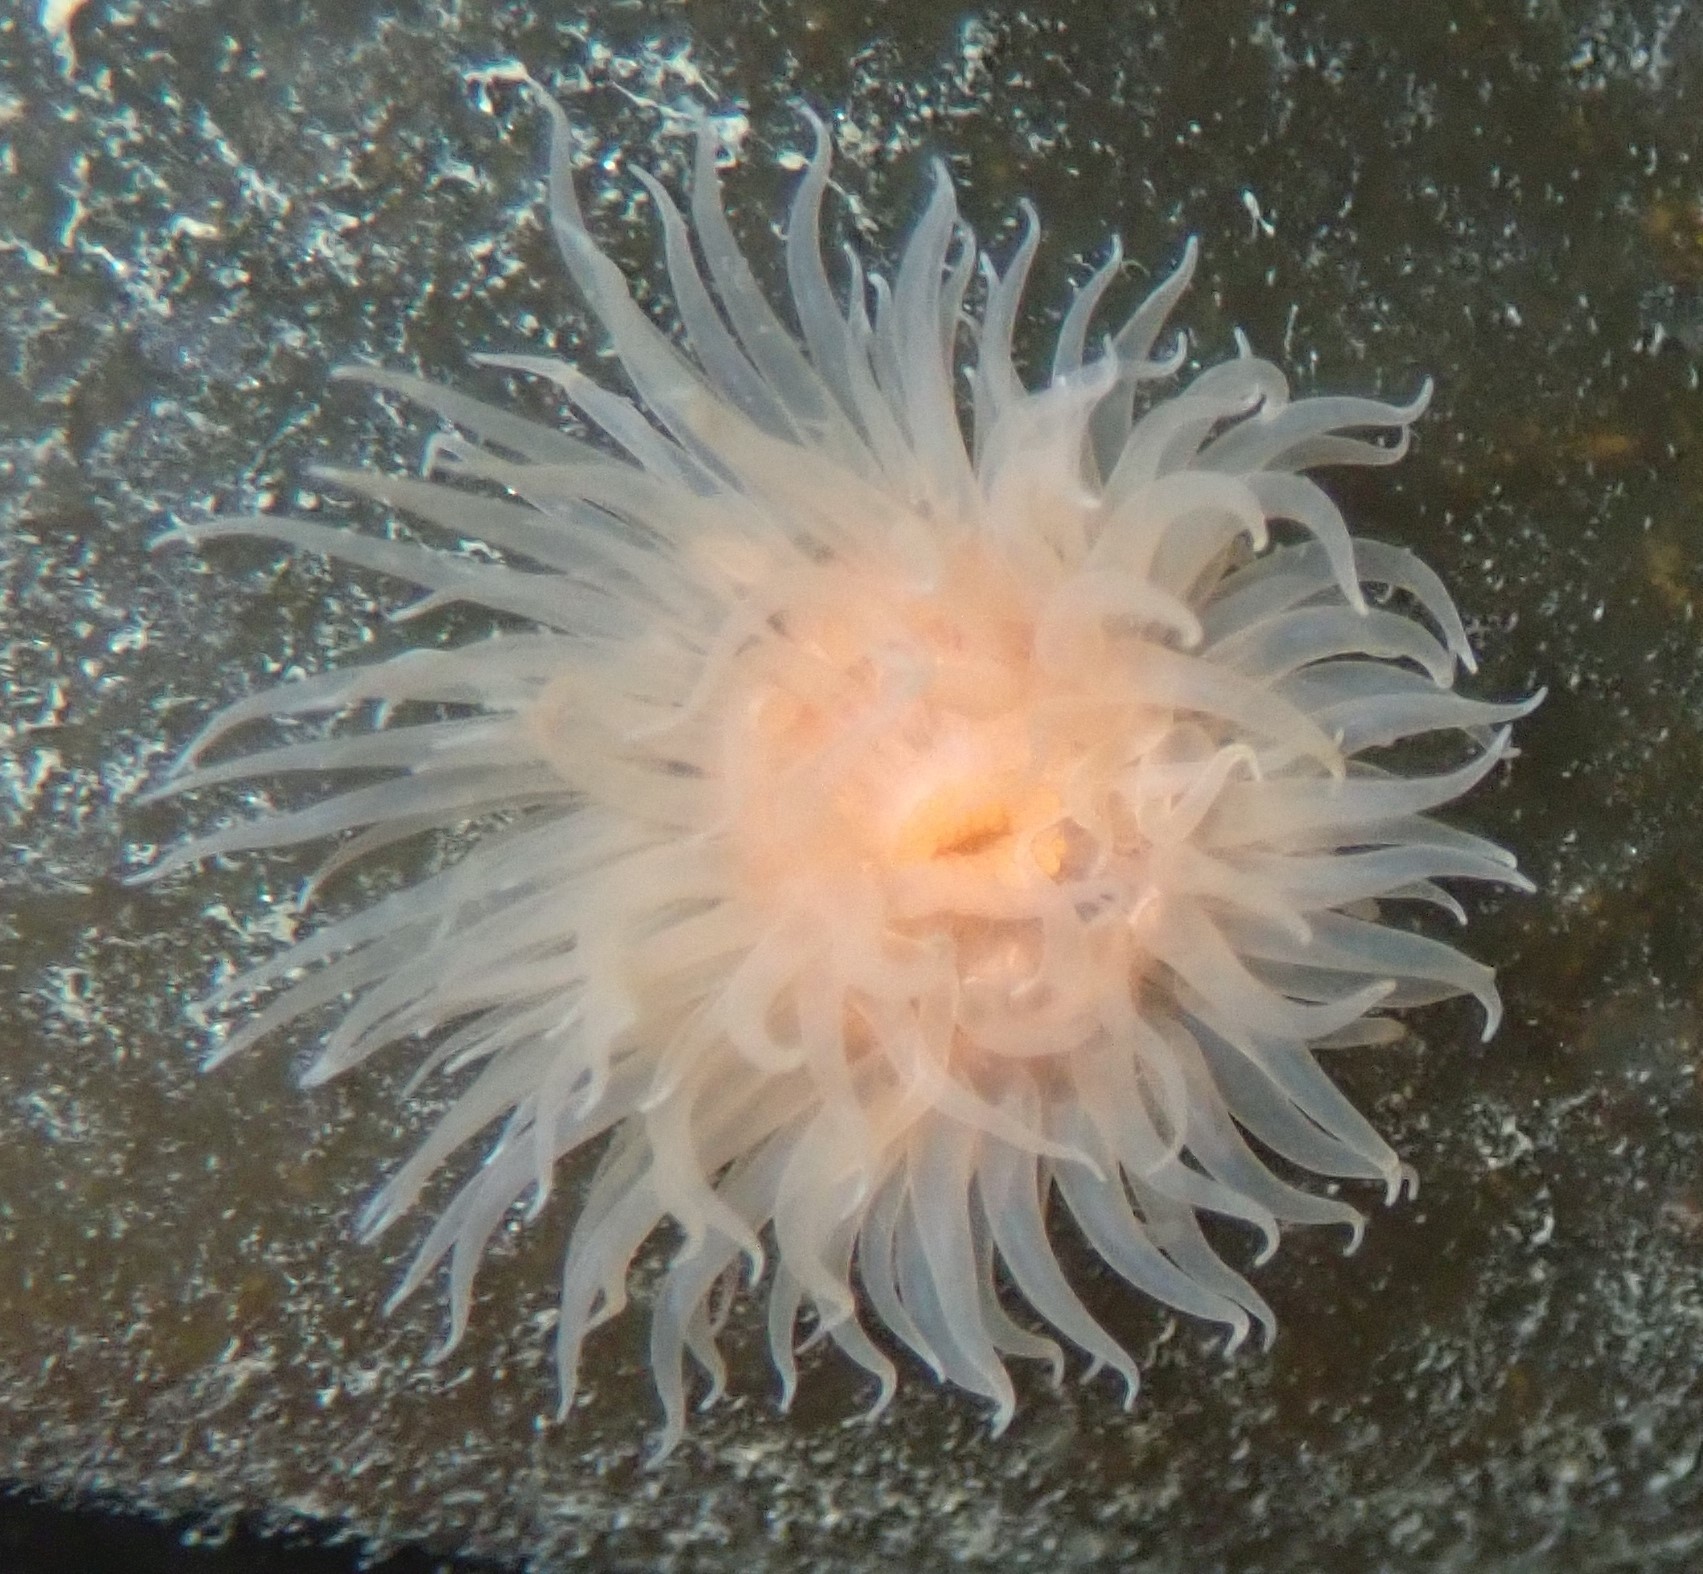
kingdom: Animalia
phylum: Cnidaria
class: Anthozoa
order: Actiniaria
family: Metridiidae
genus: Metridium
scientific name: Metridium senile
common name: Clonal plumose anemone
